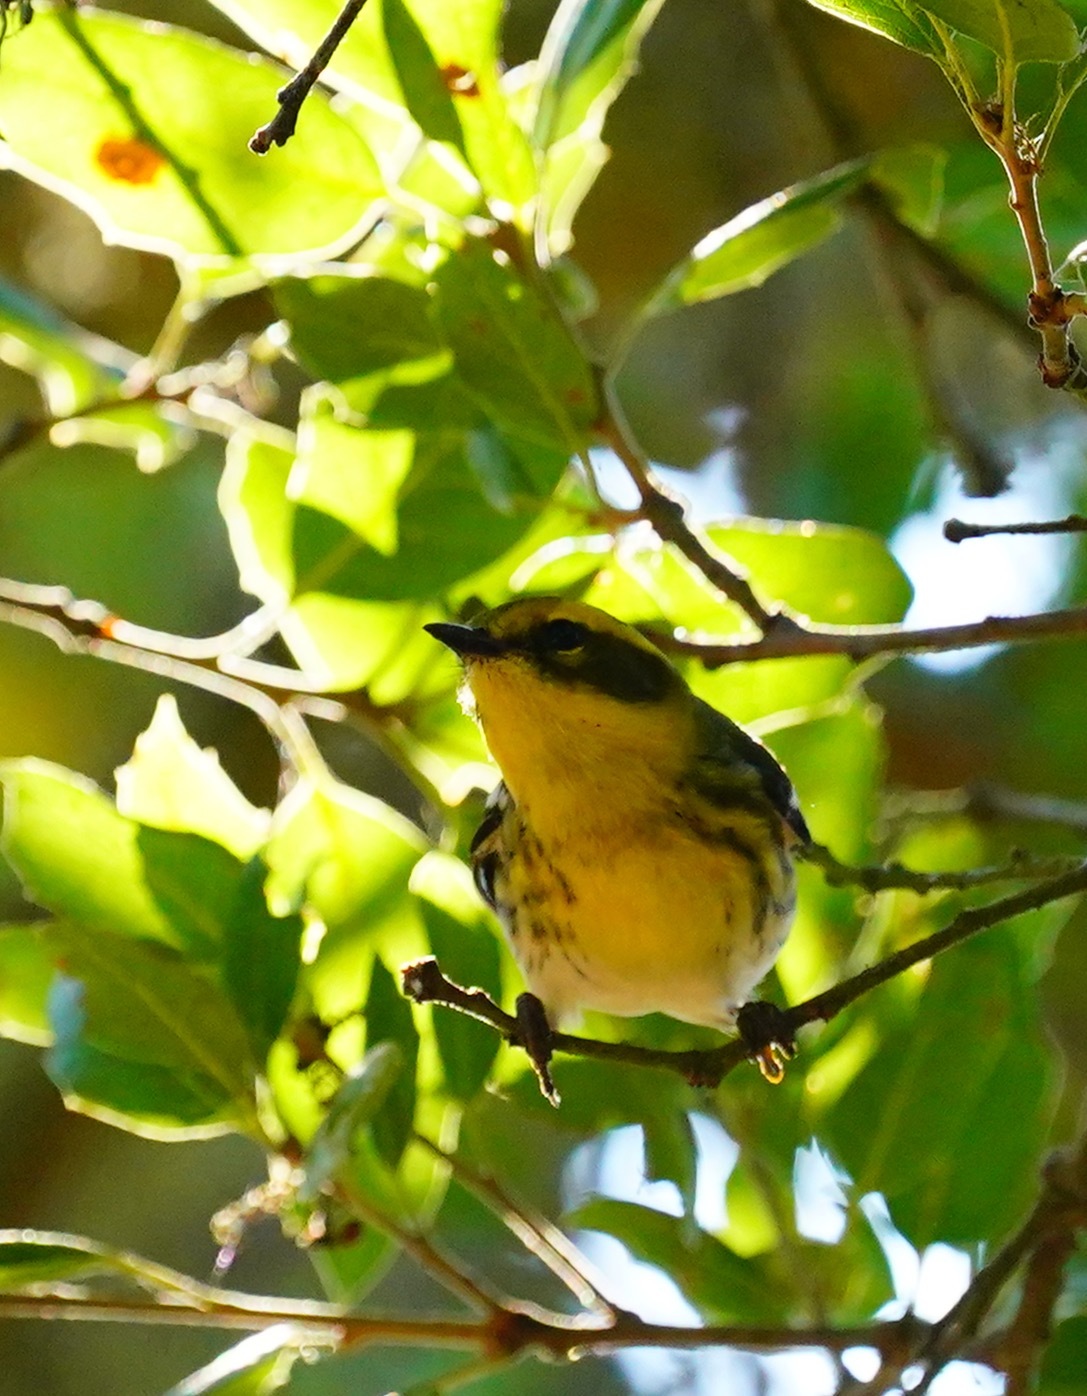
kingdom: Animalia
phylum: Chordata
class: Aves
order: Passeriformes
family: Parulidae
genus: Setophaga
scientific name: Setophaga townsendi
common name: Townsend's warbler
